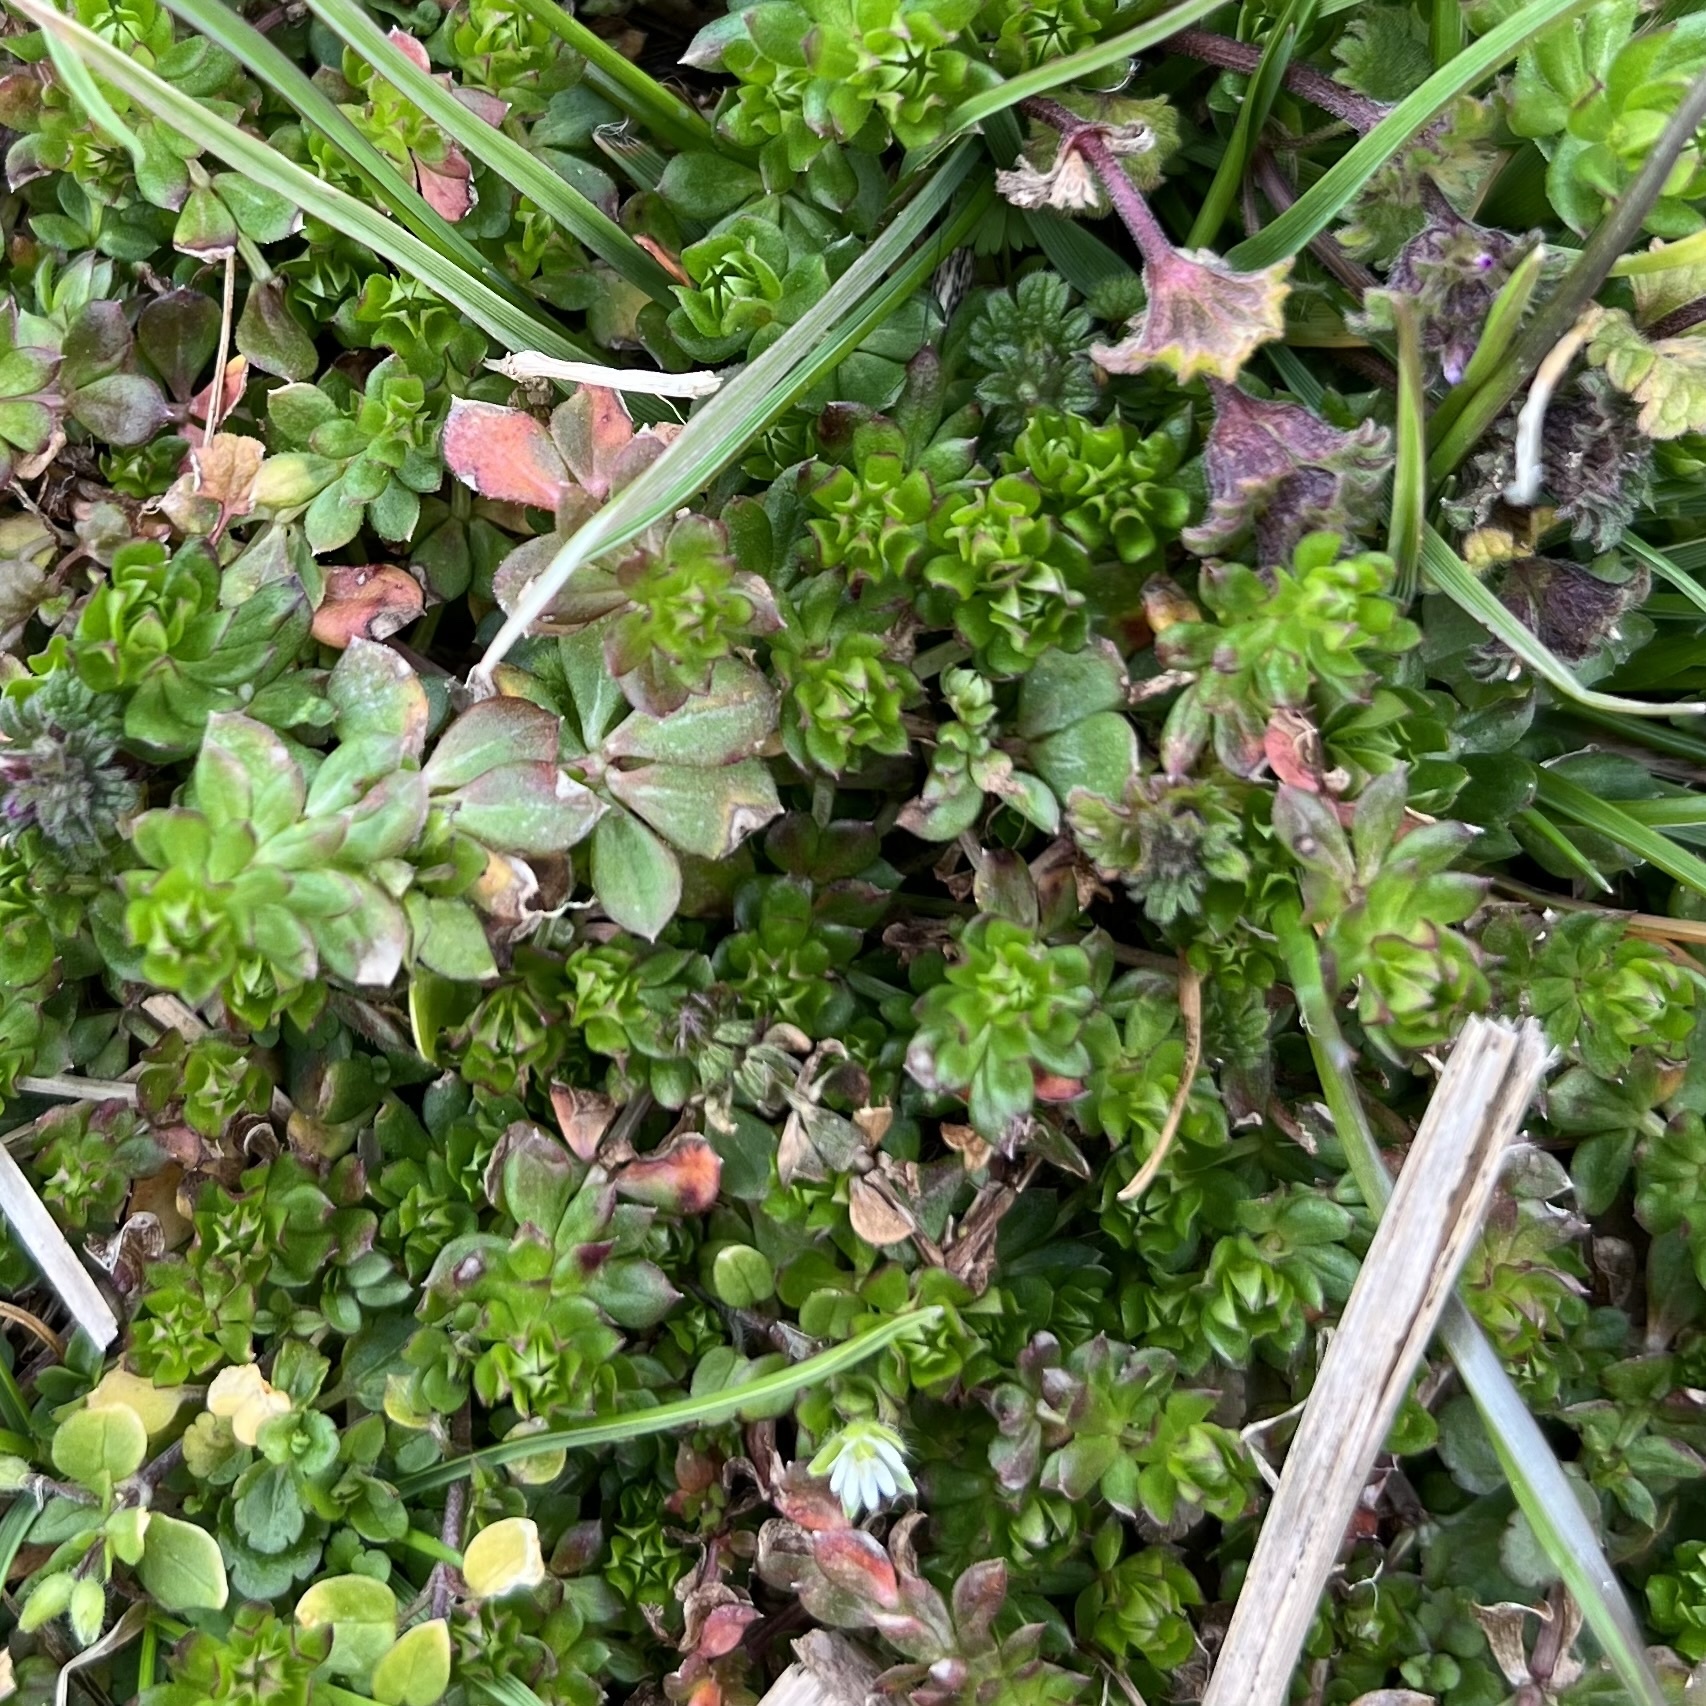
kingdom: Plantae
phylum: Tracheophyta
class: Magnoliopsida
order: Gentianales
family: Rubiaceae
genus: Sherardia
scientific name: Sherardia arvensis
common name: Field madder
